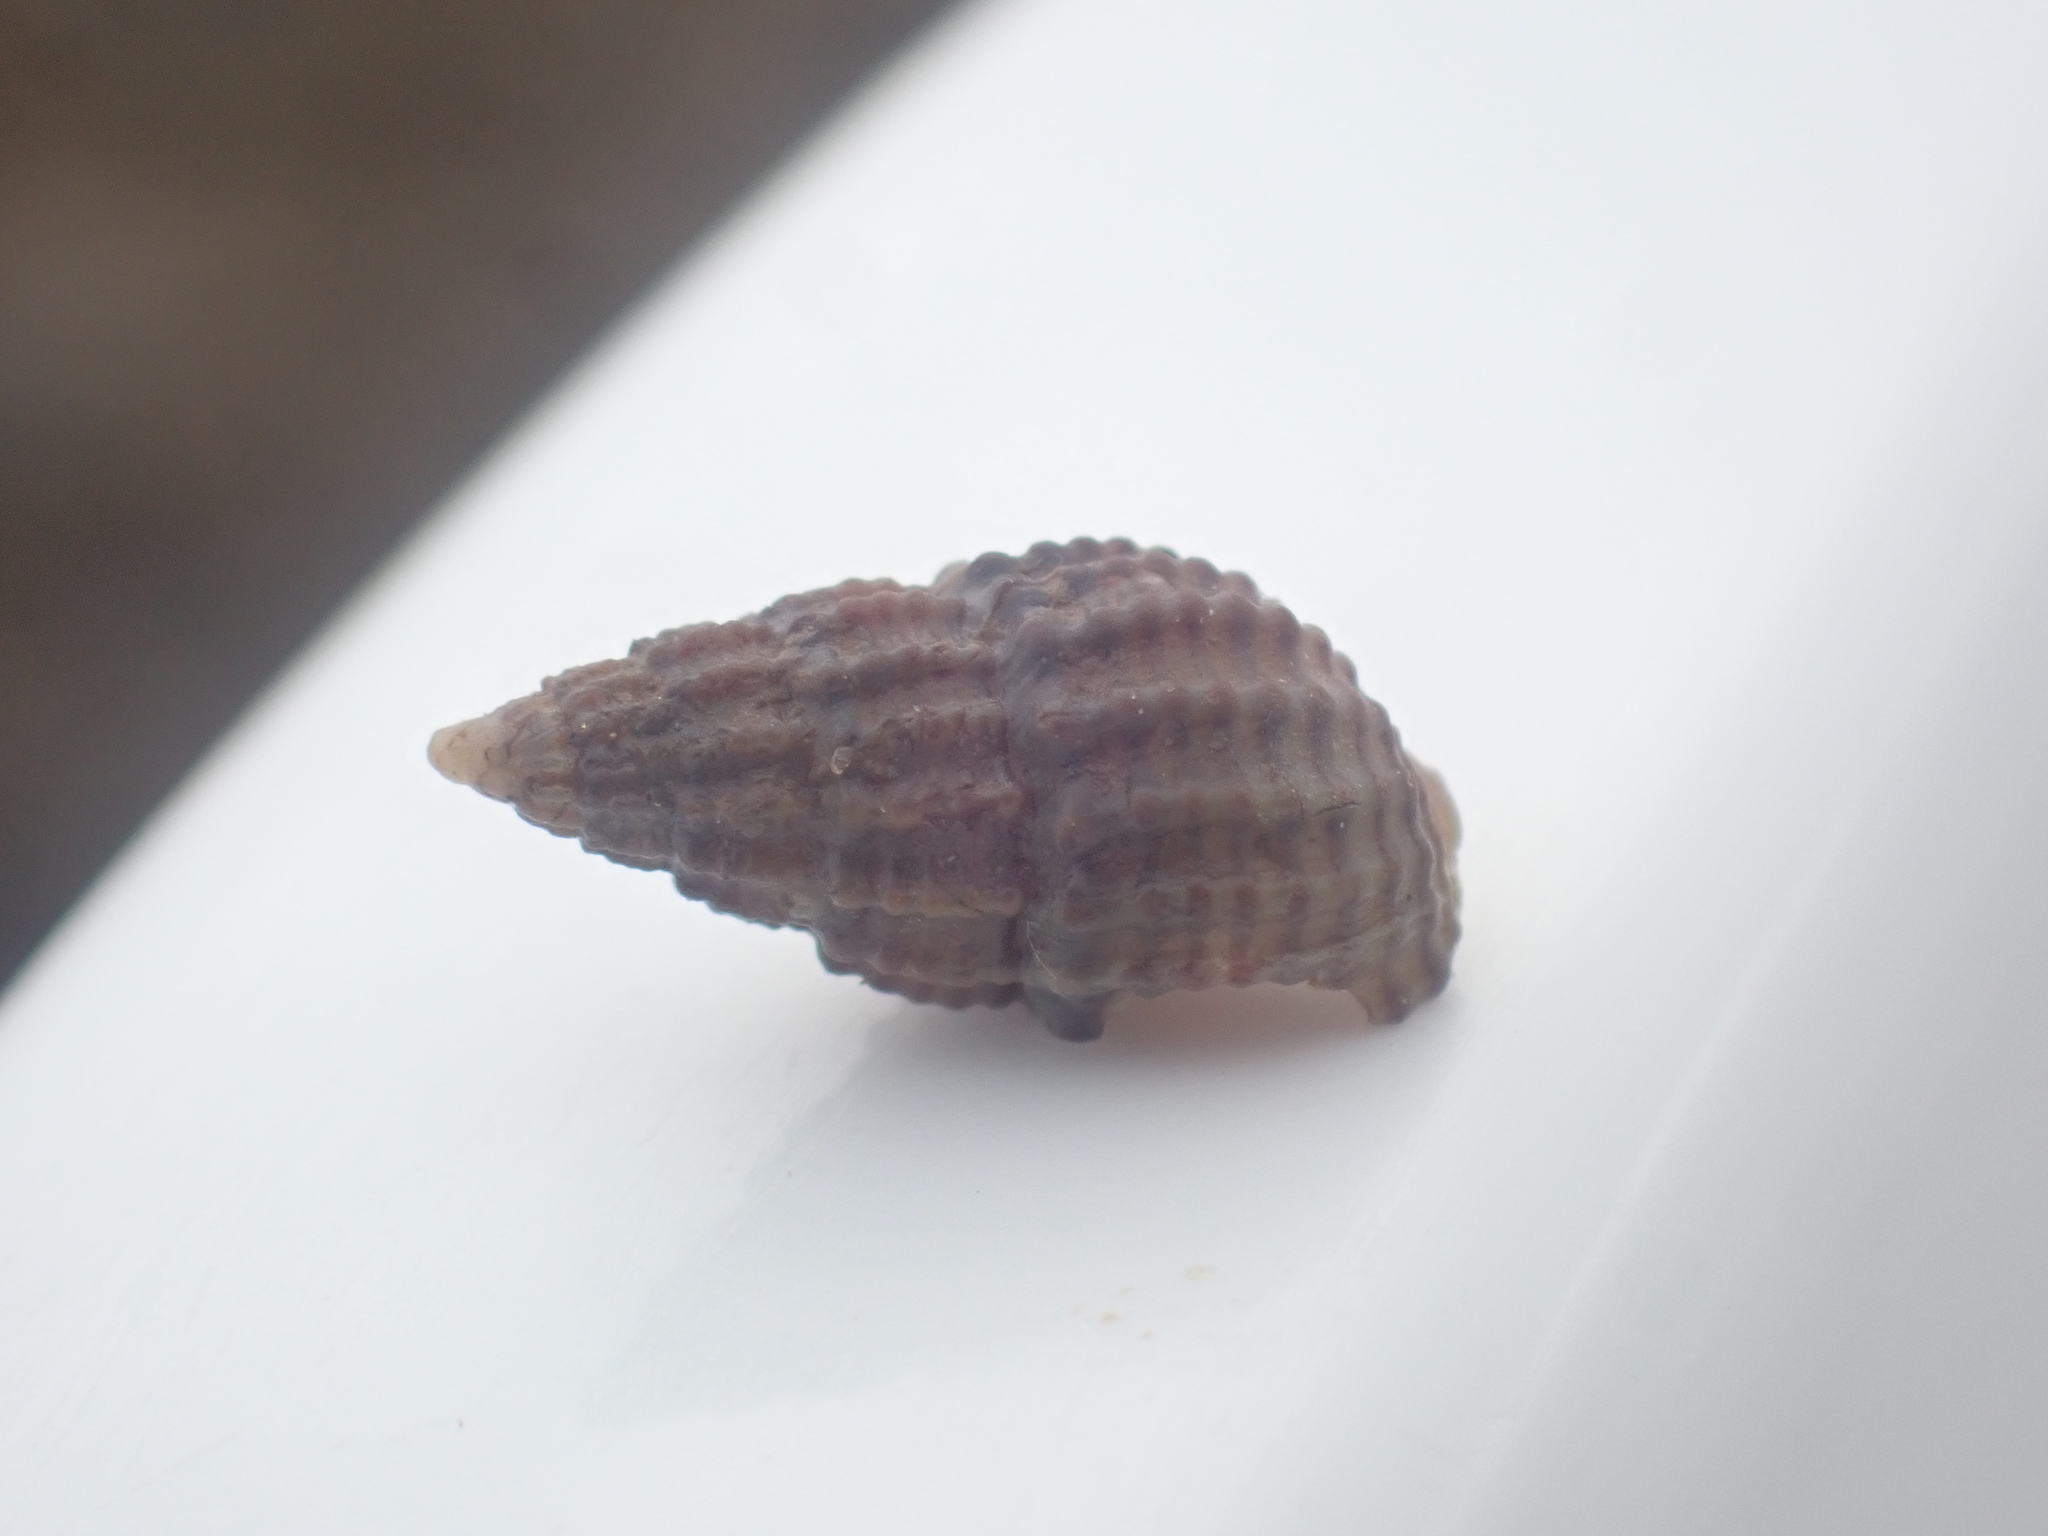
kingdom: Animalia
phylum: Mollusca
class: Gastropoda
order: Neogastropoda
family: Nassariidae
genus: Ilyanassa
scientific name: Ilyanassa trivittata
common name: Three-line mudsnail
